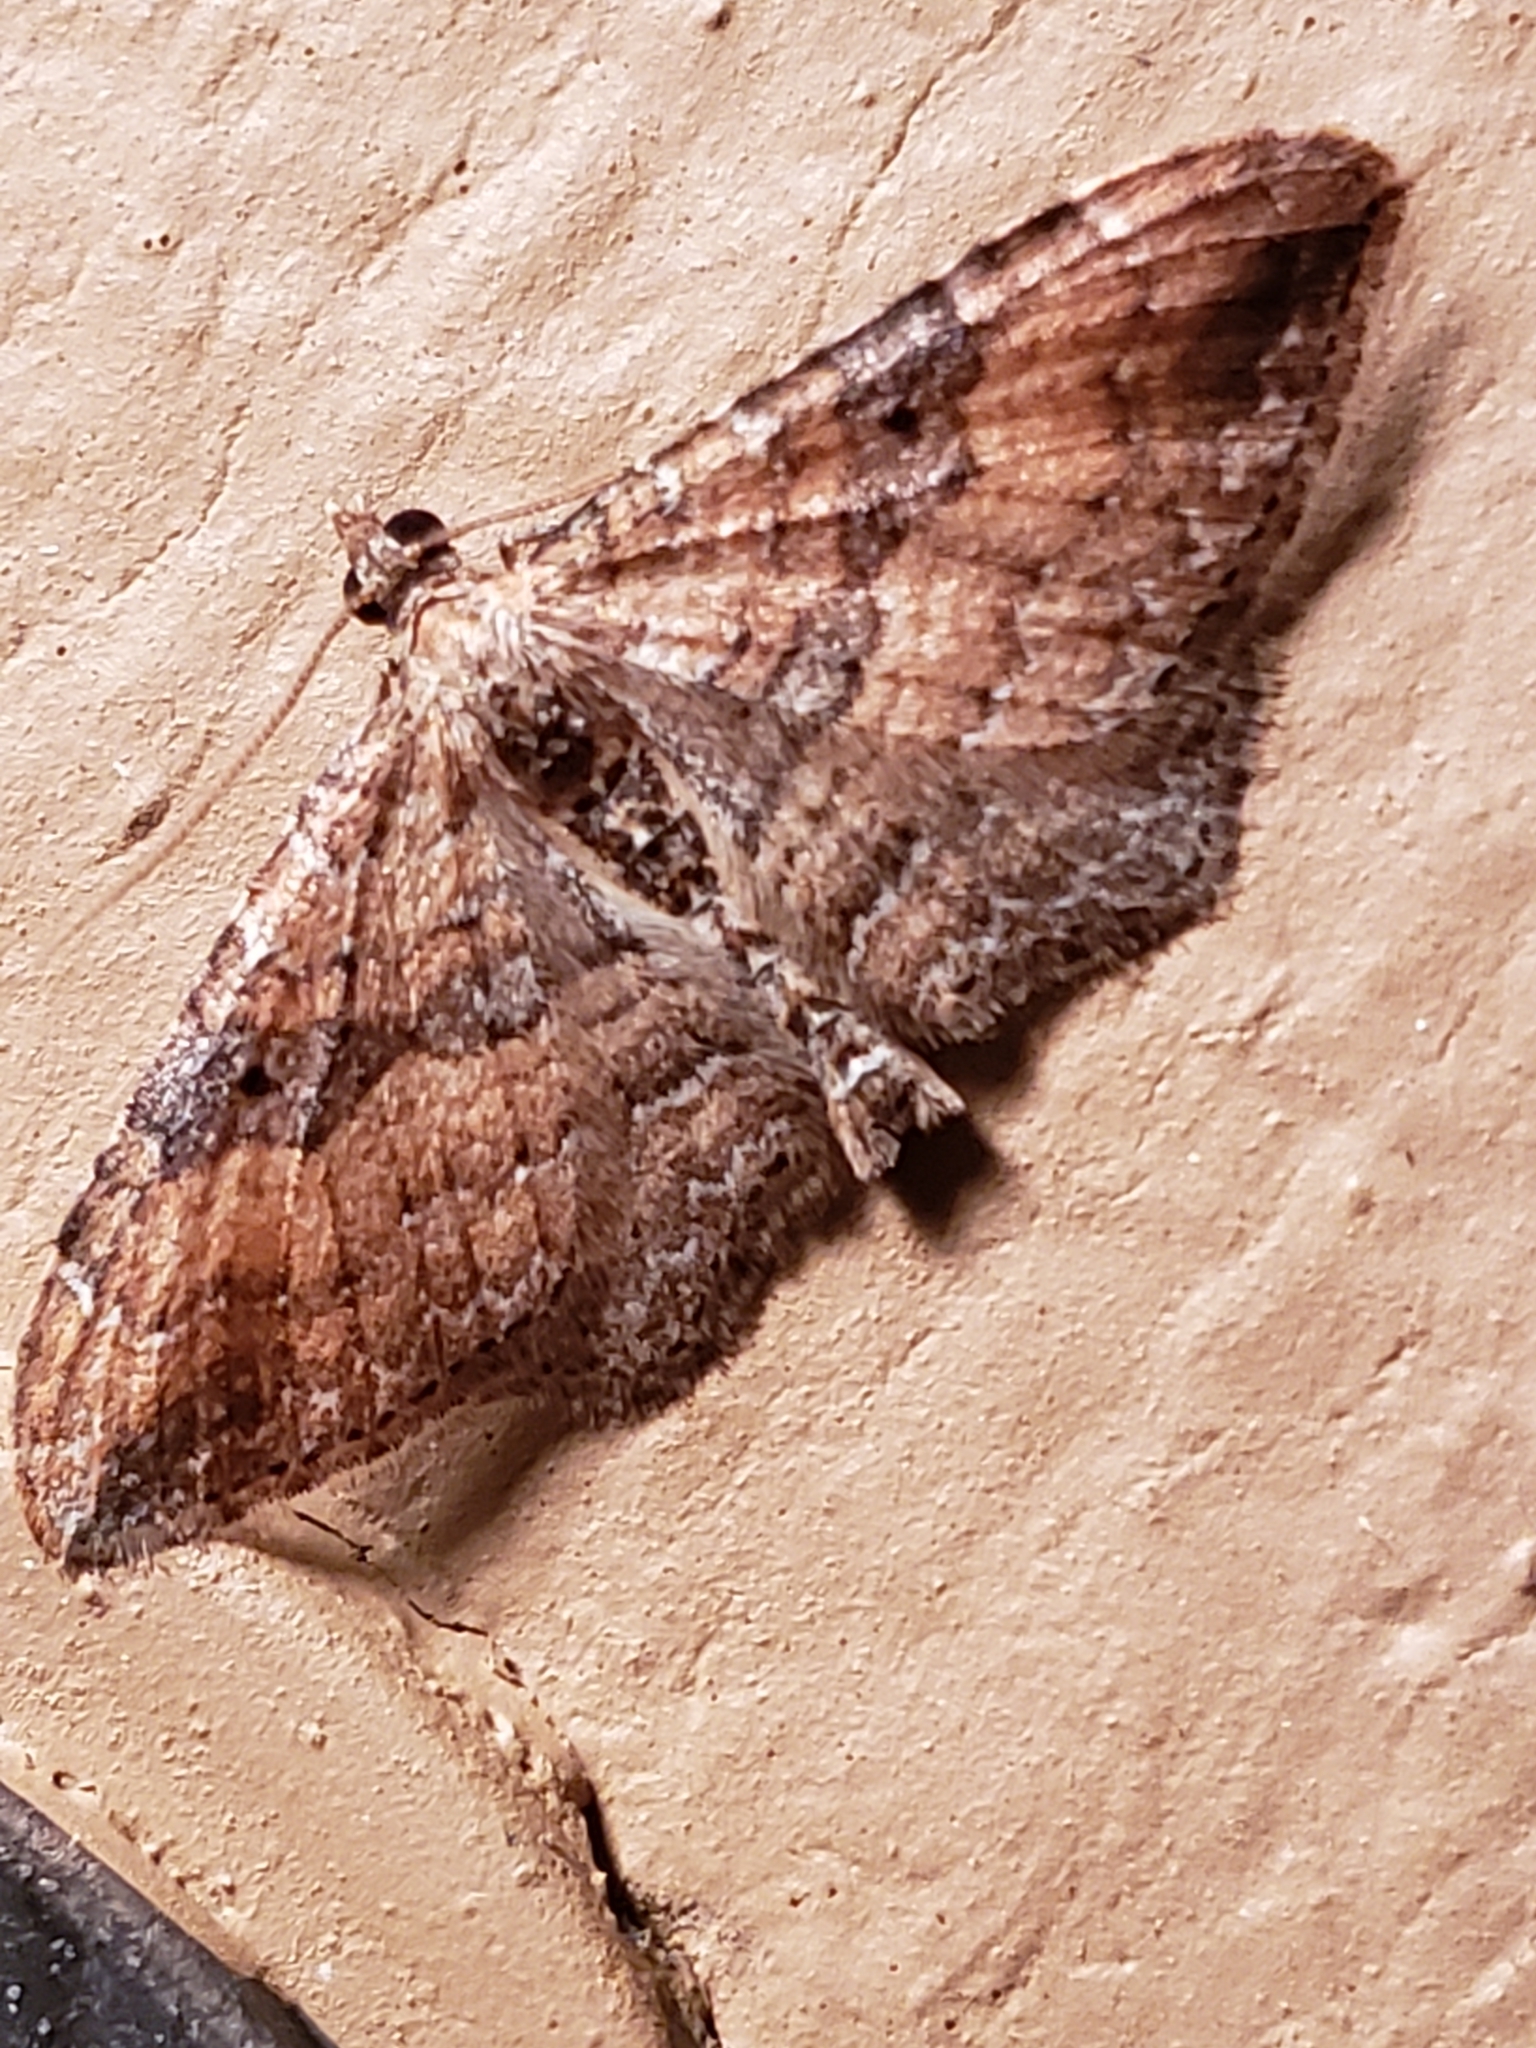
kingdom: Animalia
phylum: Arthropoda
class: Insecta
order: Lepidoptera
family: Geometridae
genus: Orthonama
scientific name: Orthonama obstipata
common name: The gem
